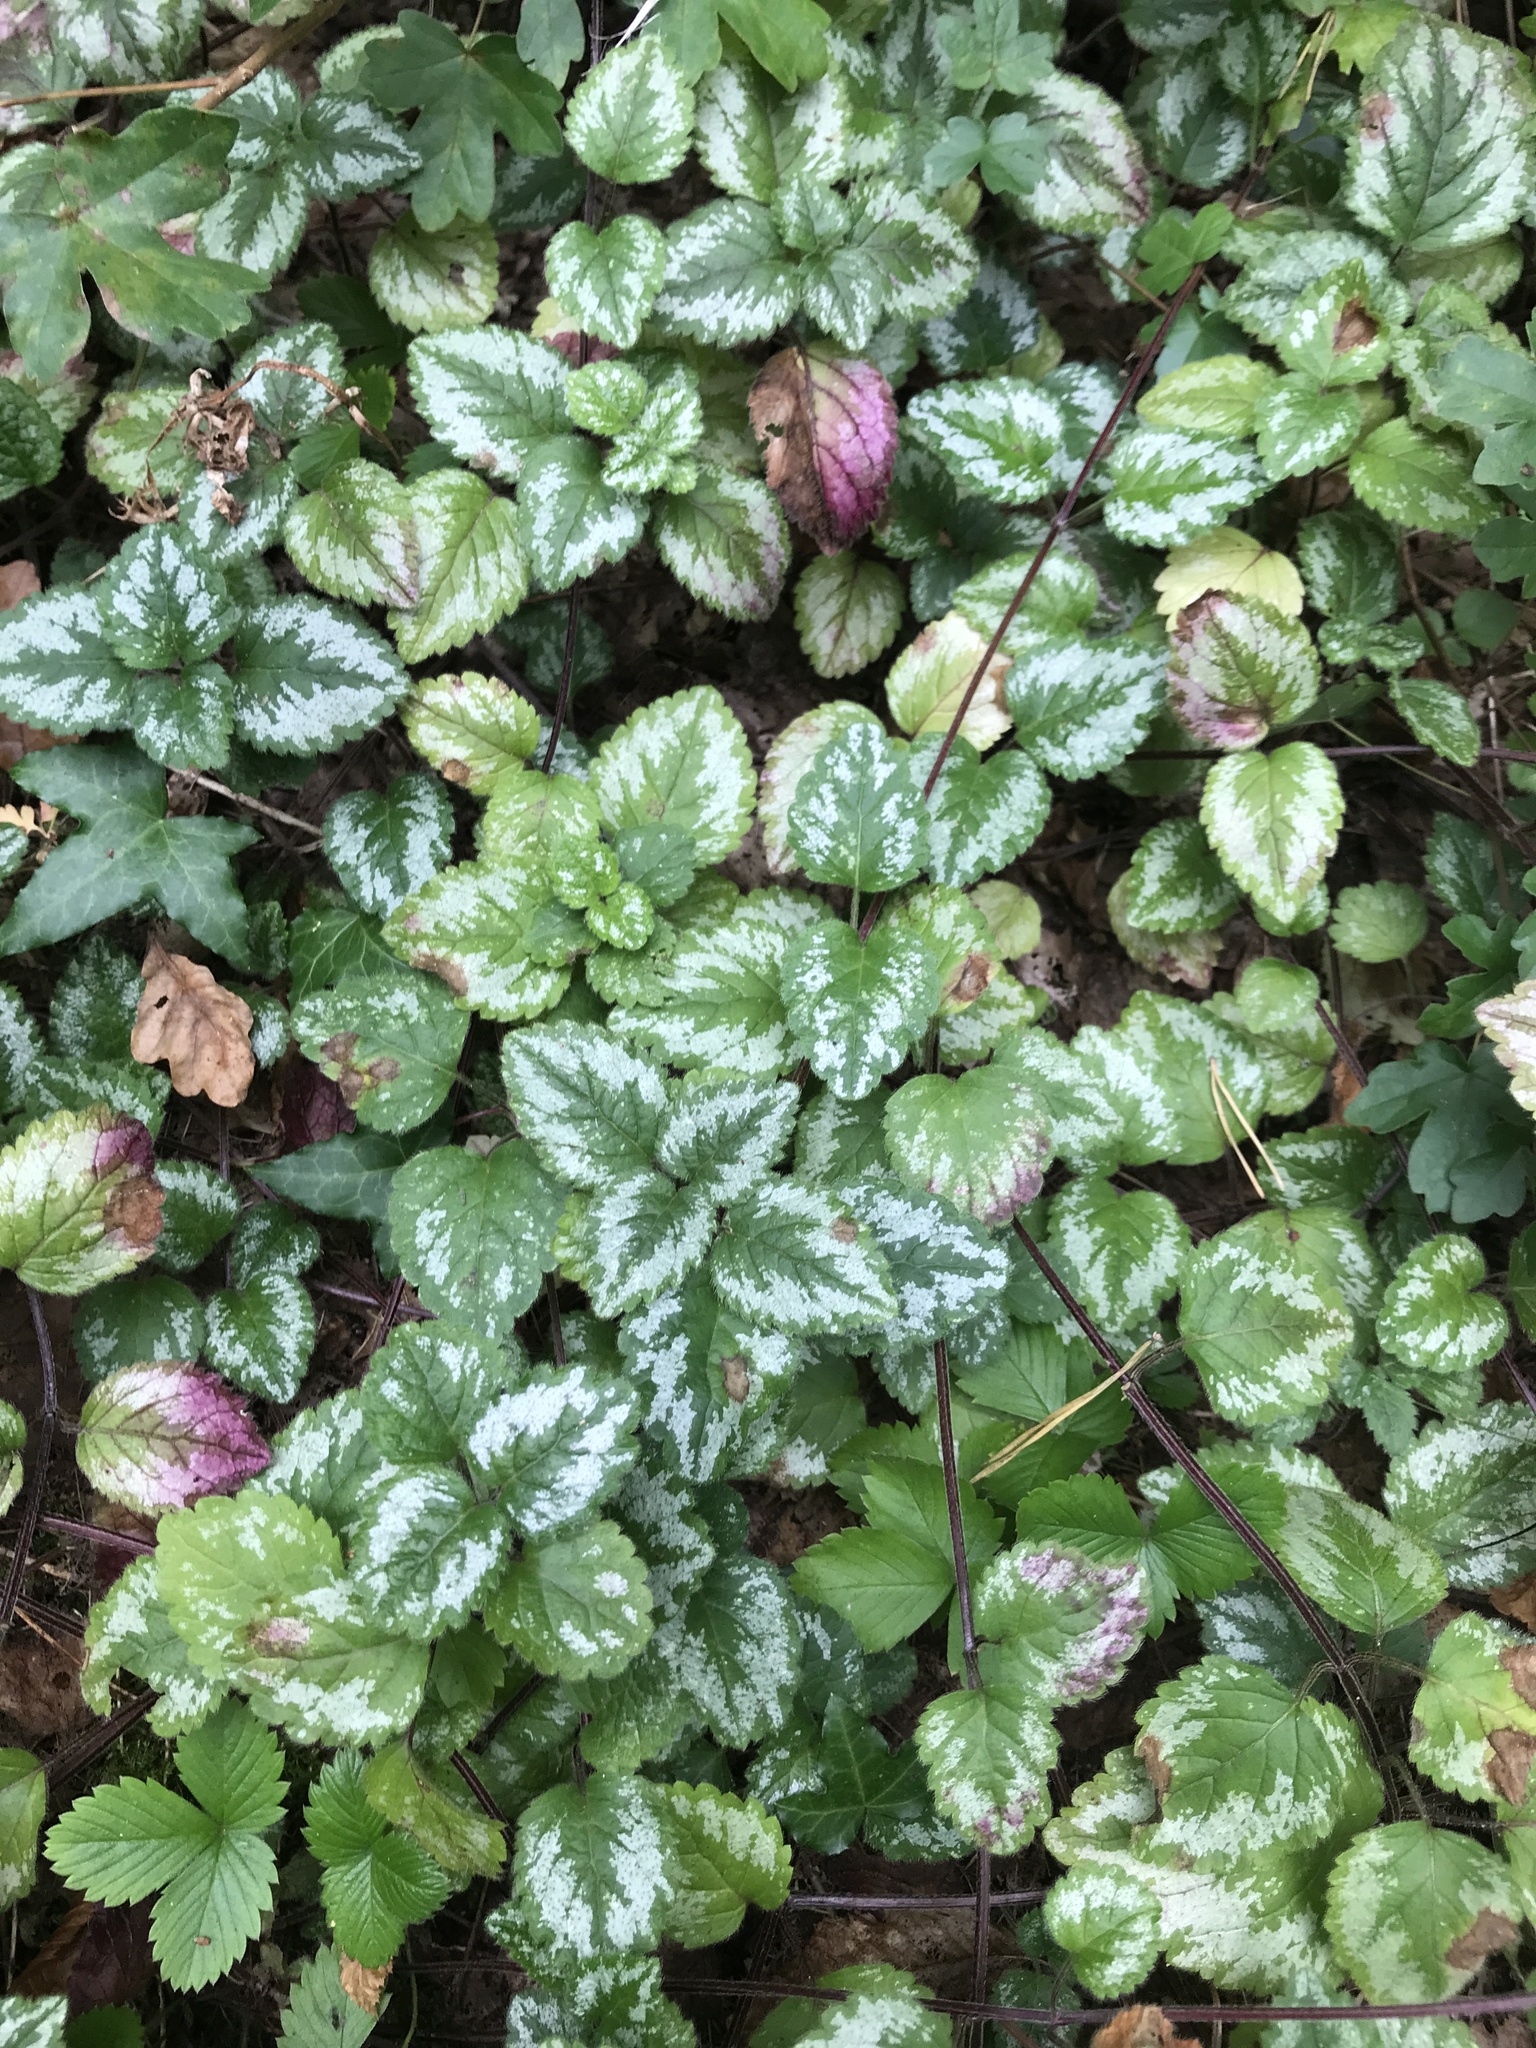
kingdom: Plantae
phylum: Tracheophyta
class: Magnoliopsida
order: Lamiales
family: Lamiaceae
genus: Lamium
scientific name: Lamium galeobdolon
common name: Yellow archangel
